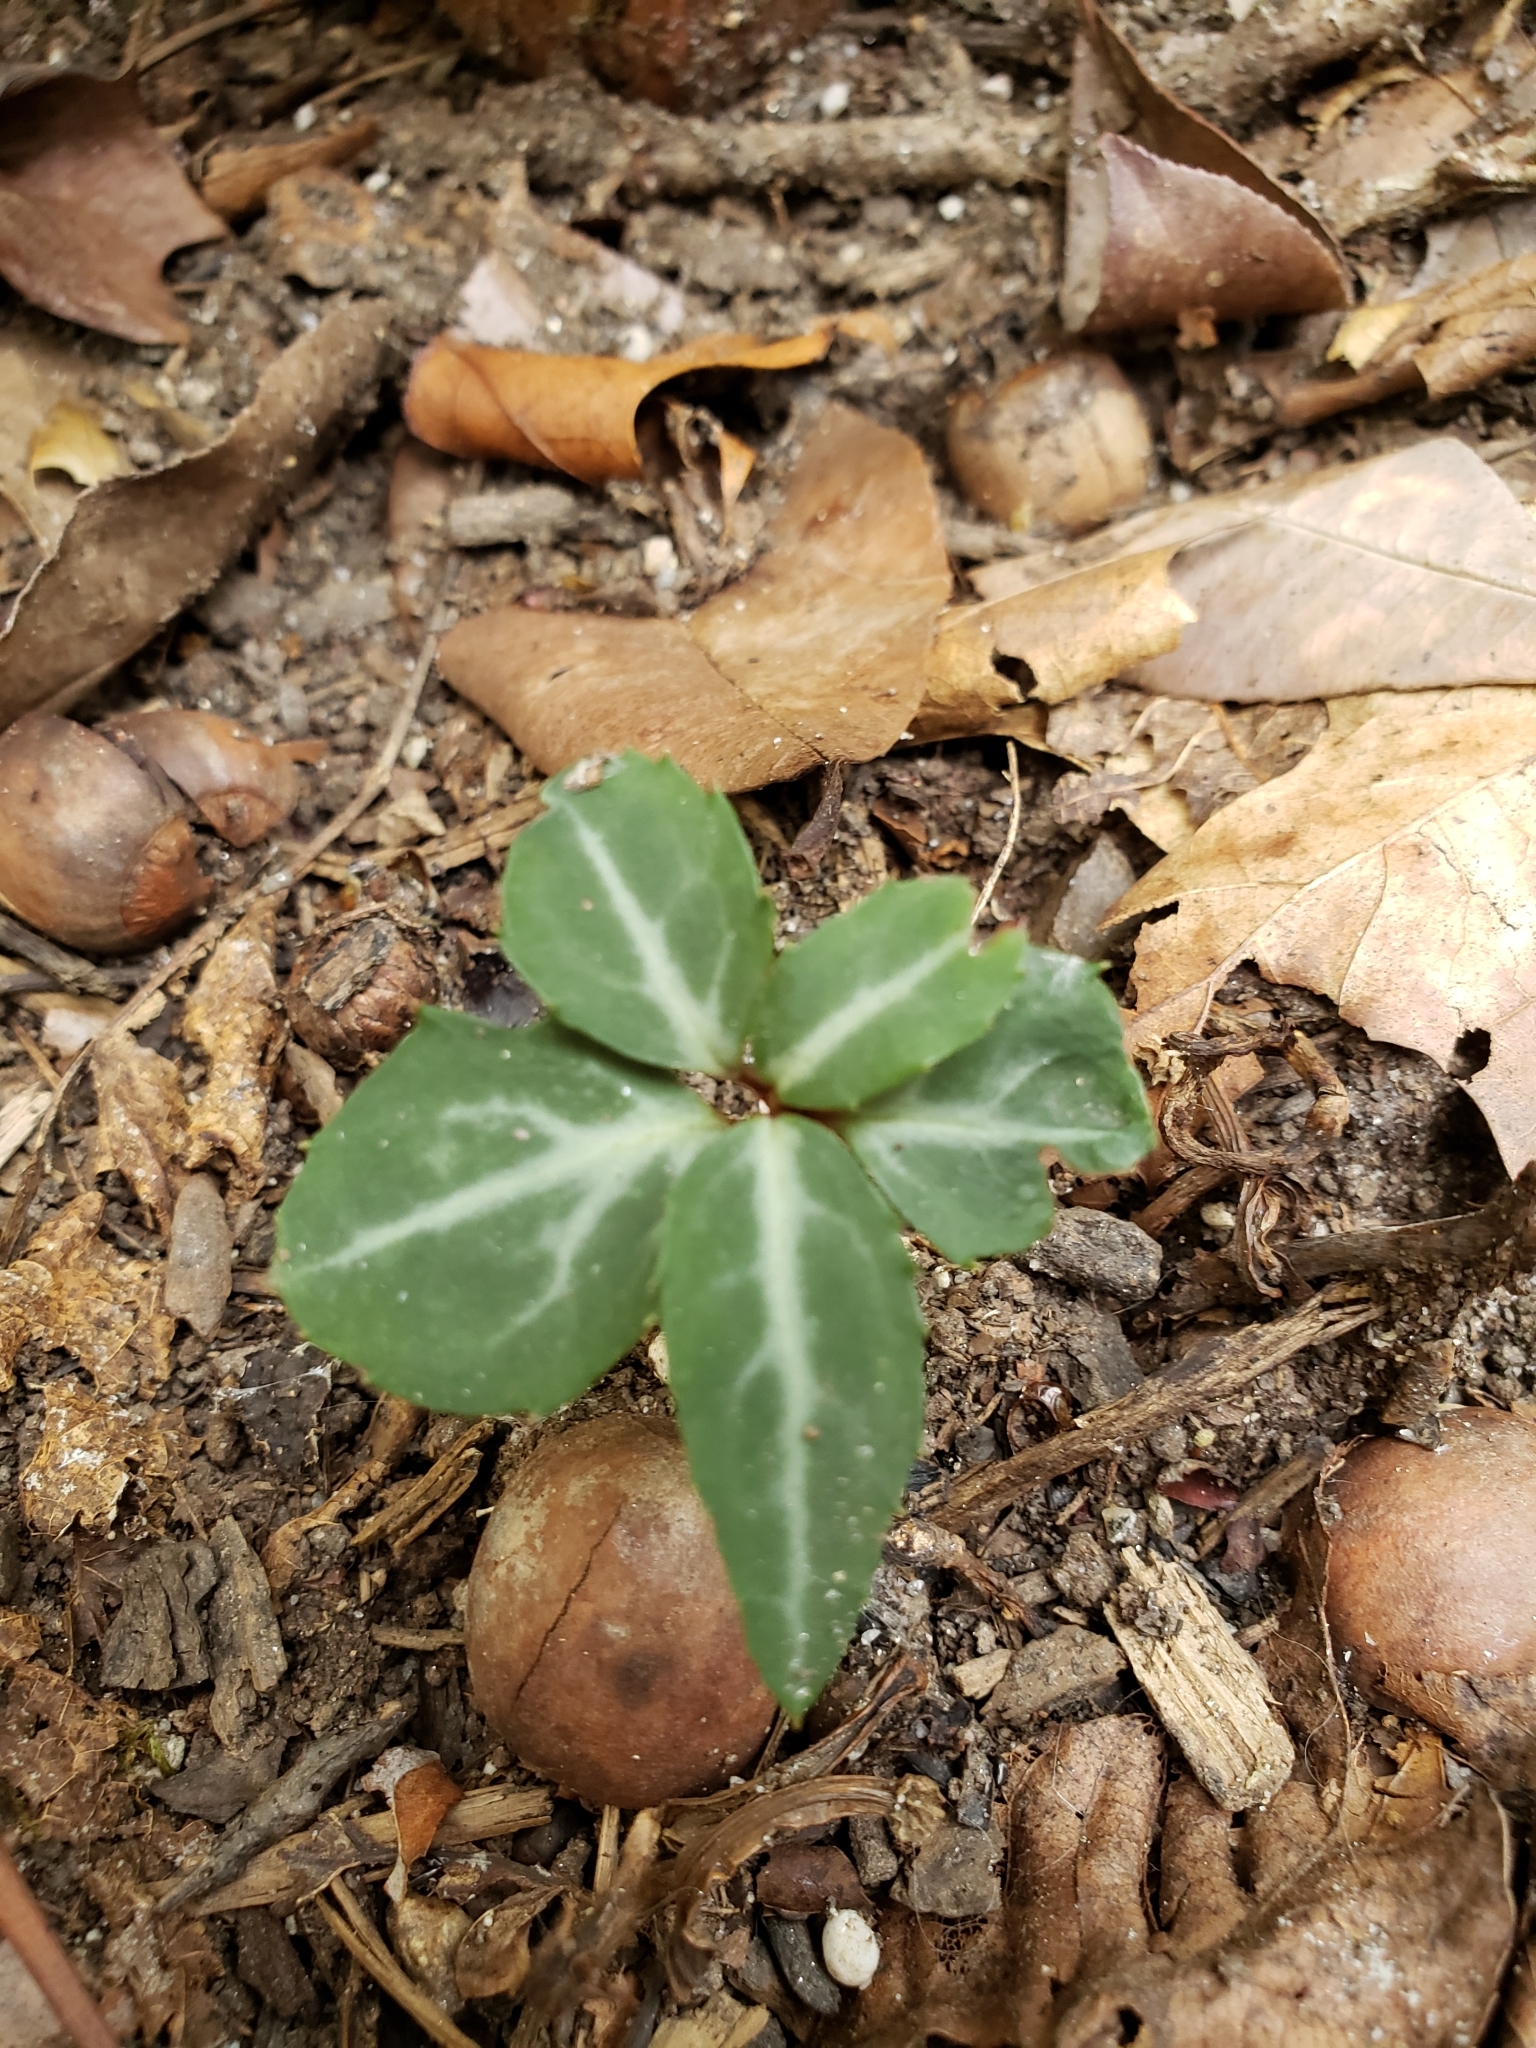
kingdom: Plantae
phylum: Tracheophyta
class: Magnoliopsida
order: Ericales
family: Ericaceae
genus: Chimaphila
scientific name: Chimaphila maculata
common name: Spotted pipsissewa
